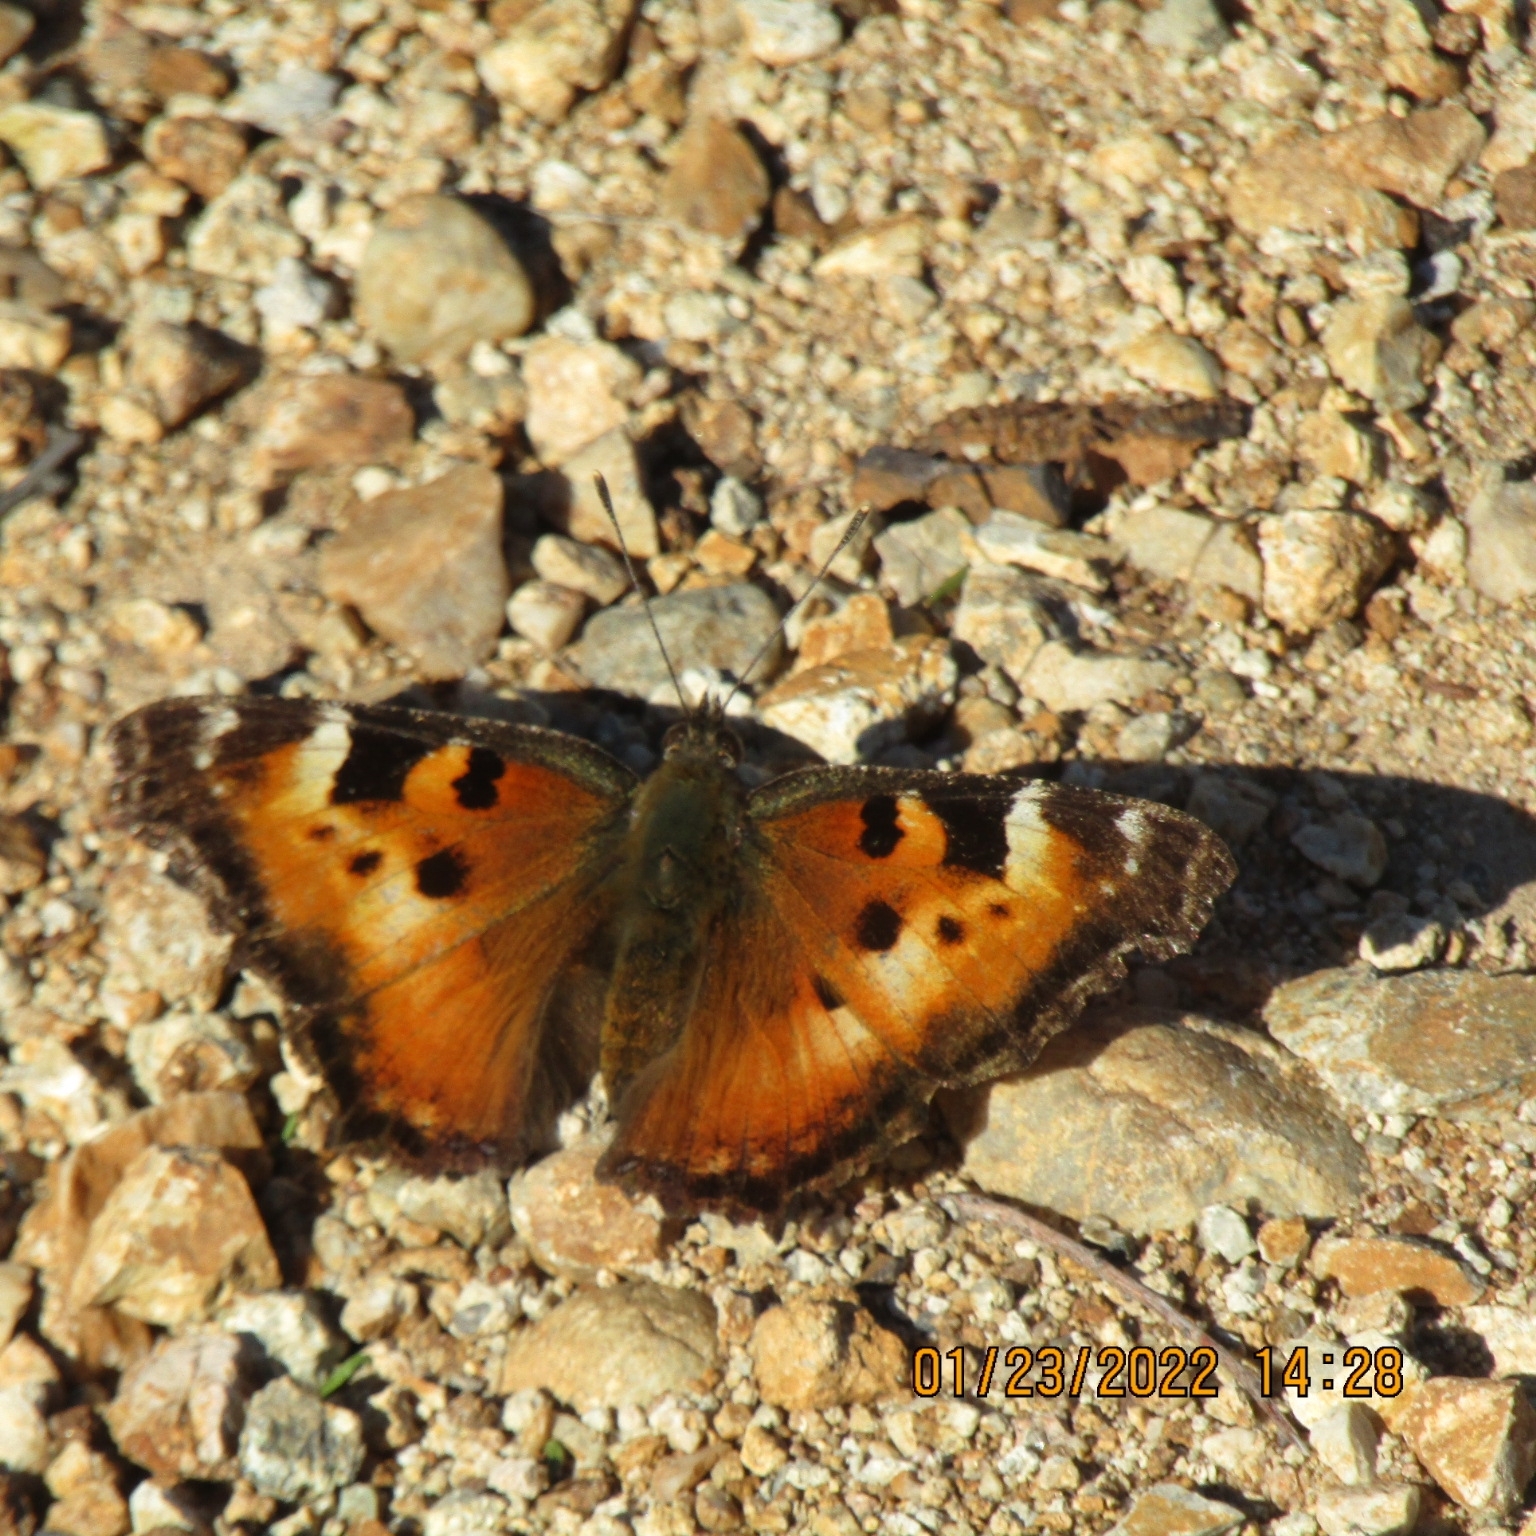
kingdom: Animalia
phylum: Arthropoda
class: Insecta
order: Lepidoptera
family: Nymphalidae
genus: Nymphalis
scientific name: Nymphalis californica
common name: California tortoiseshell
